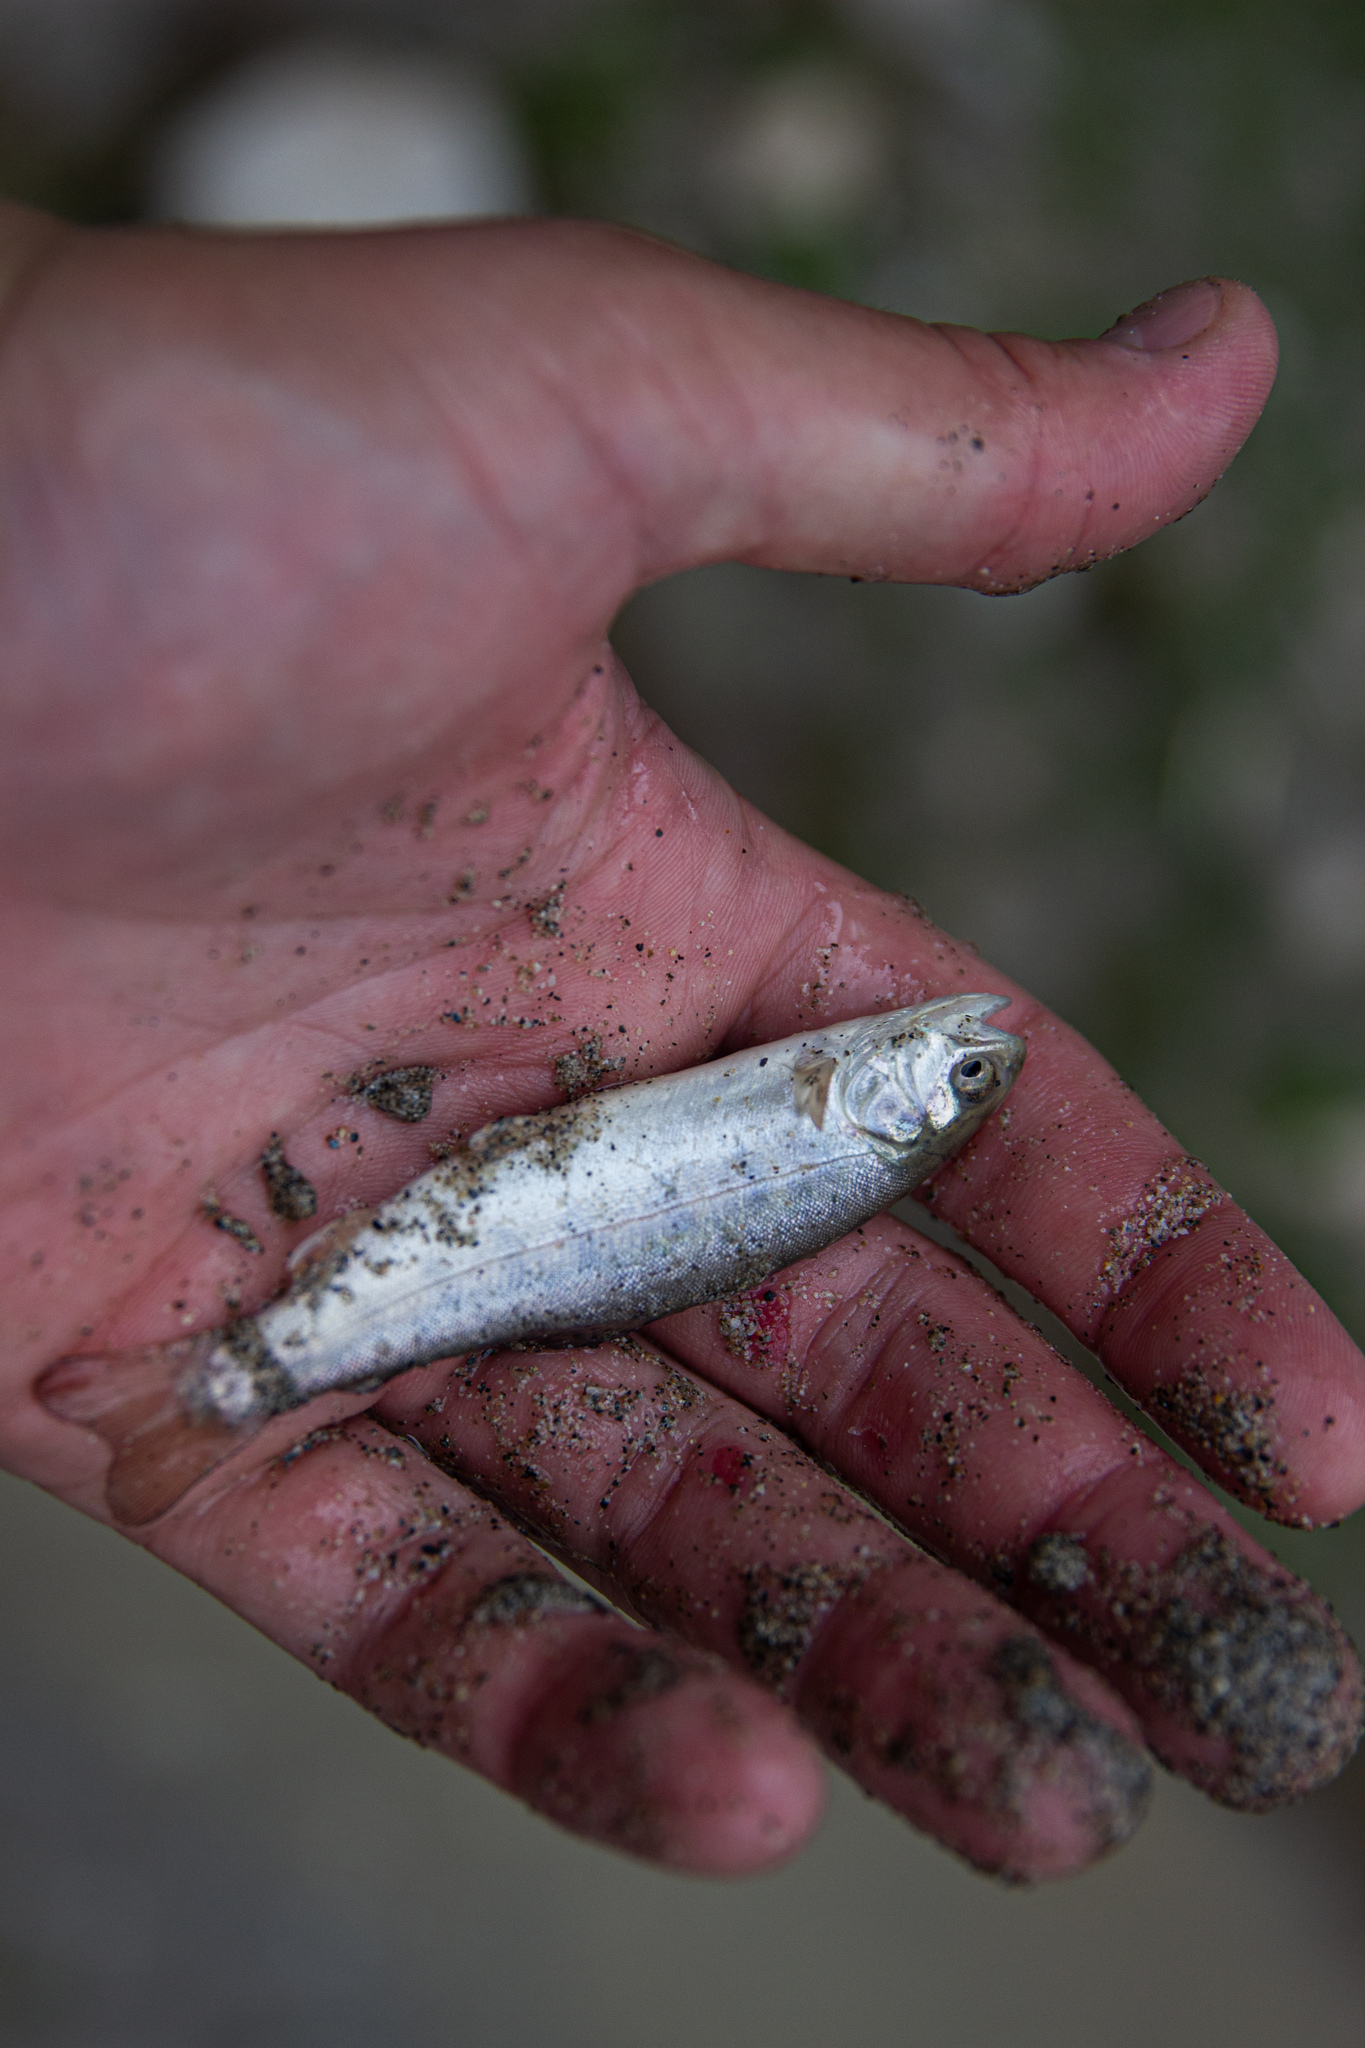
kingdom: Animalia
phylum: Chordata
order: Salmoniformes
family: Salmonidae
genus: Oncorhynchus
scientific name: Oncorhynchus mykiss
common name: Rainbow trout
